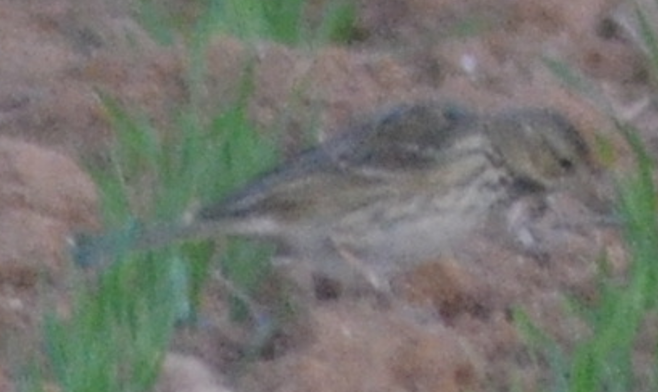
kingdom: Animalia
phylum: Chordata
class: Aves
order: Passeriformes
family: Motacillidae
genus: Anthus
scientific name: Anthus pratensis
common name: Meadow pipit
